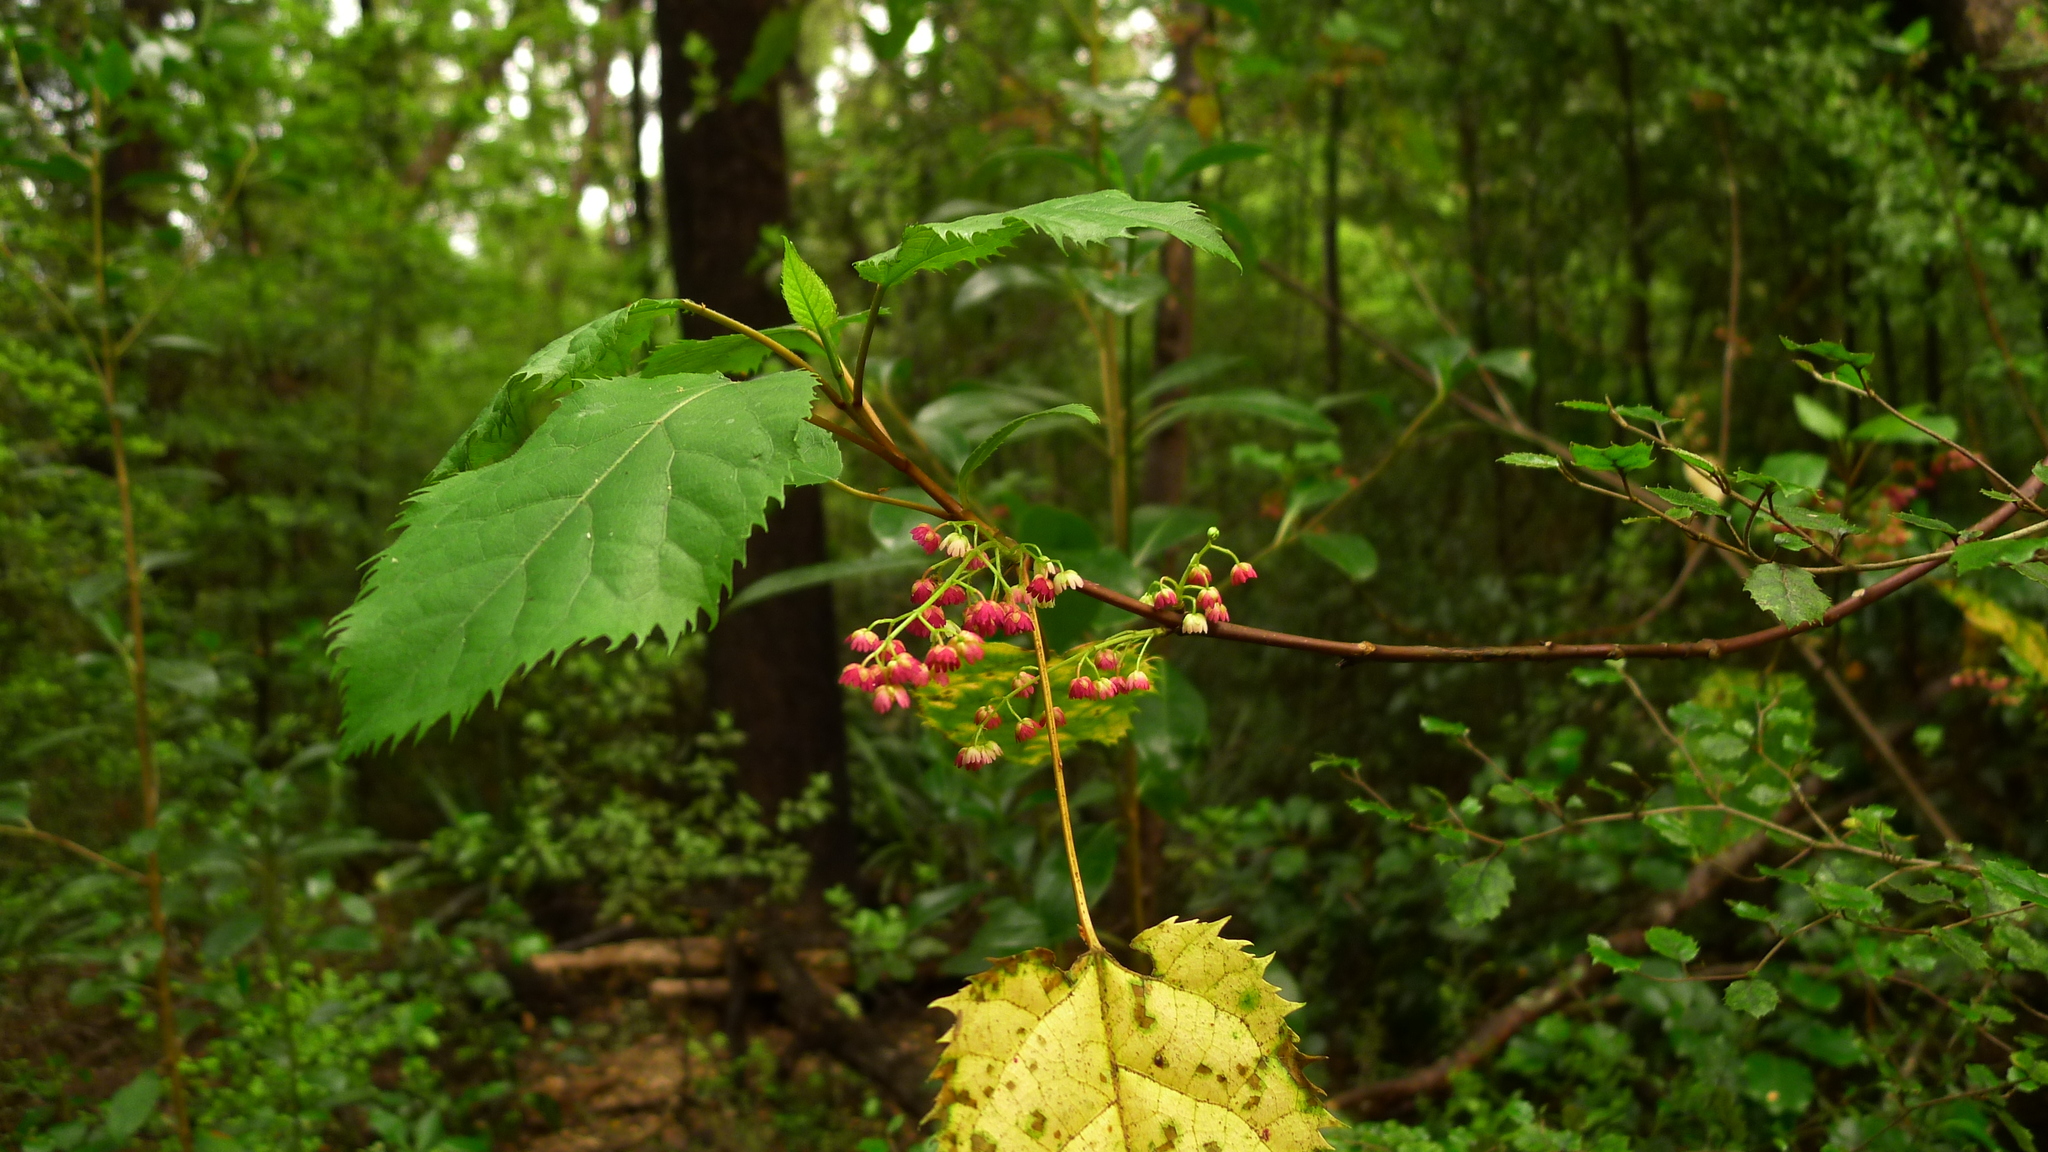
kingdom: Plantae
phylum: Tracheophyta
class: Magnoliopsida
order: Oxalidales
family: Elaeocarpaceae
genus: Aristotelia
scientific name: Aristotelia serrata
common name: New zealand wineberry
